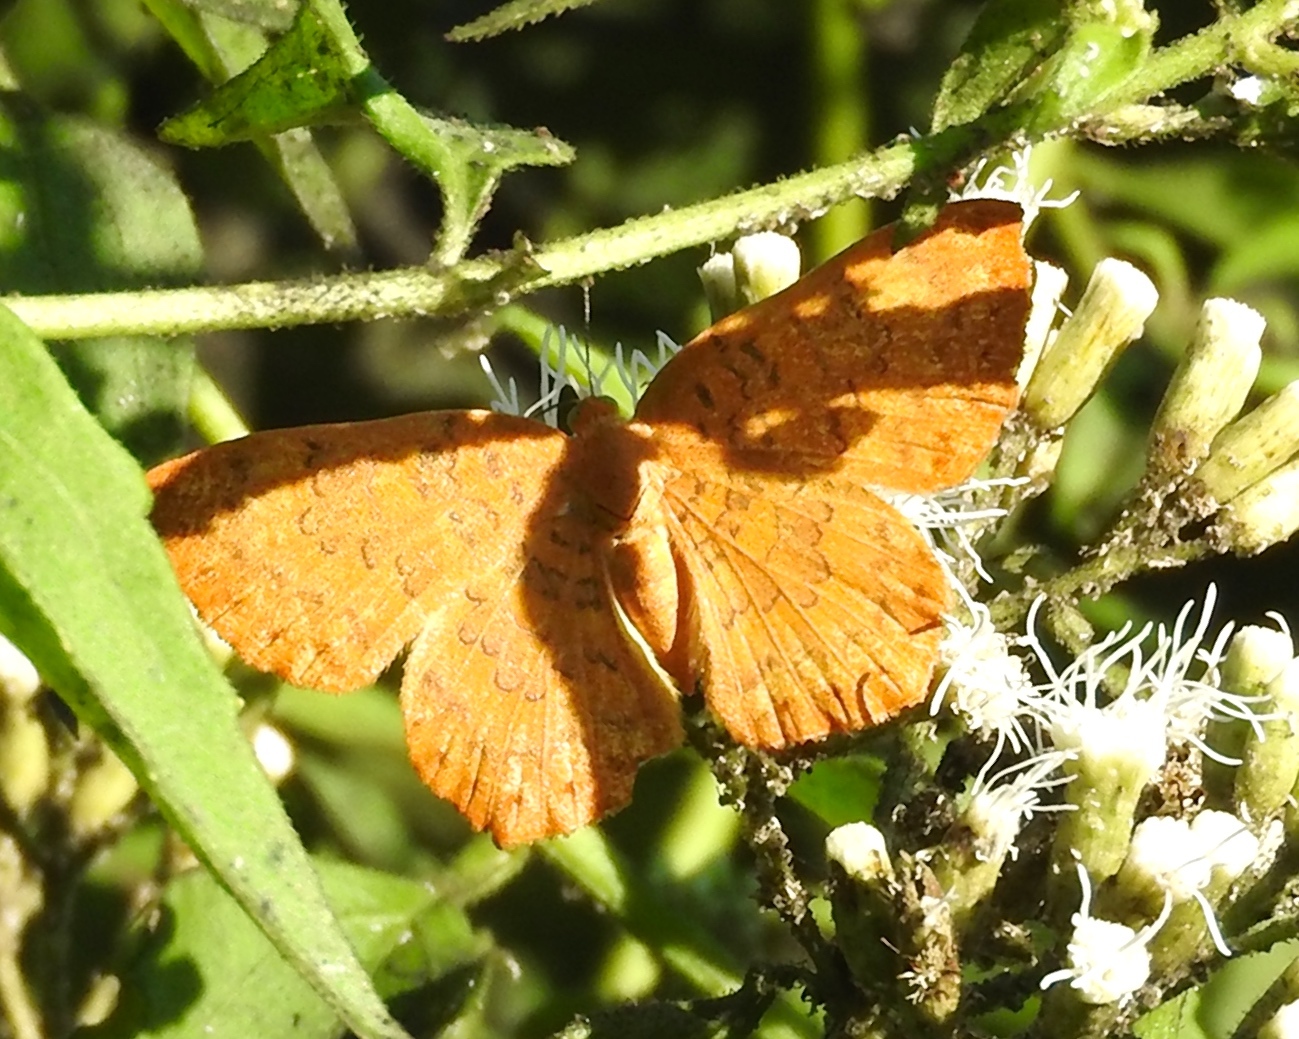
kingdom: Animalia
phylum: Arthropoda
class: Insecta
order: Lepidoptera
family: Lycaenidae
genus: Emesis
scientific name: Emesis mandana
